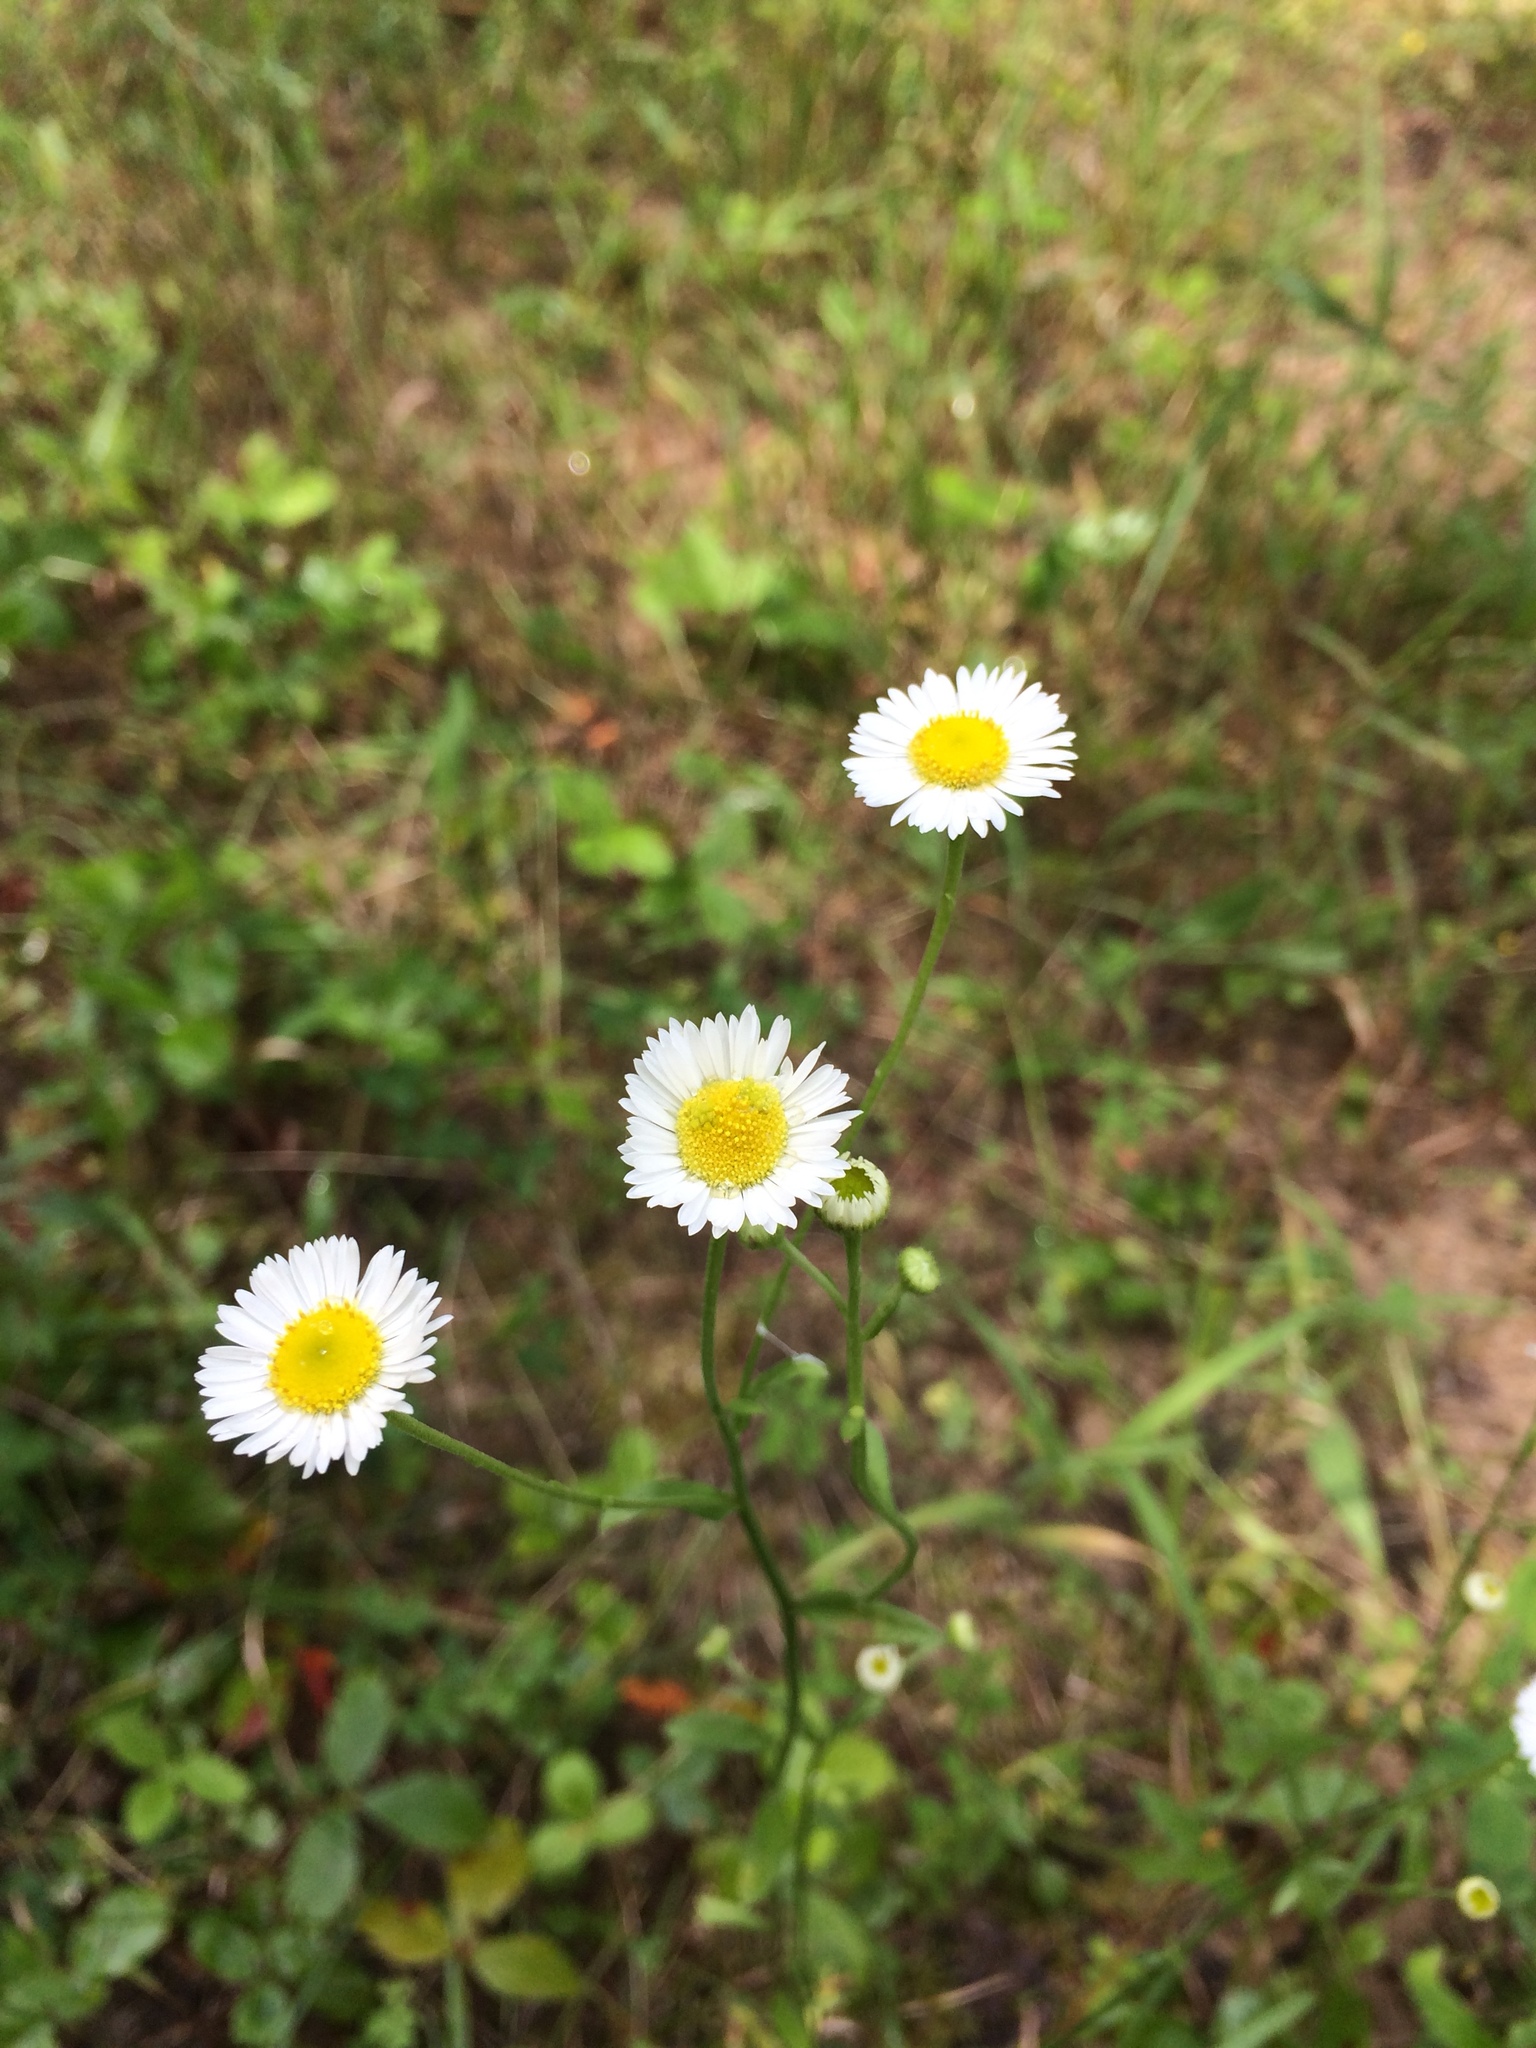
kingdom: Plantae
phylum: Tracheophyta
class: Magnoliopsida
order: Asterales
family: Asteraceae
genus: Erigeron
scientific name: Erigeron strigosus
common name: Common eastern fleabane
